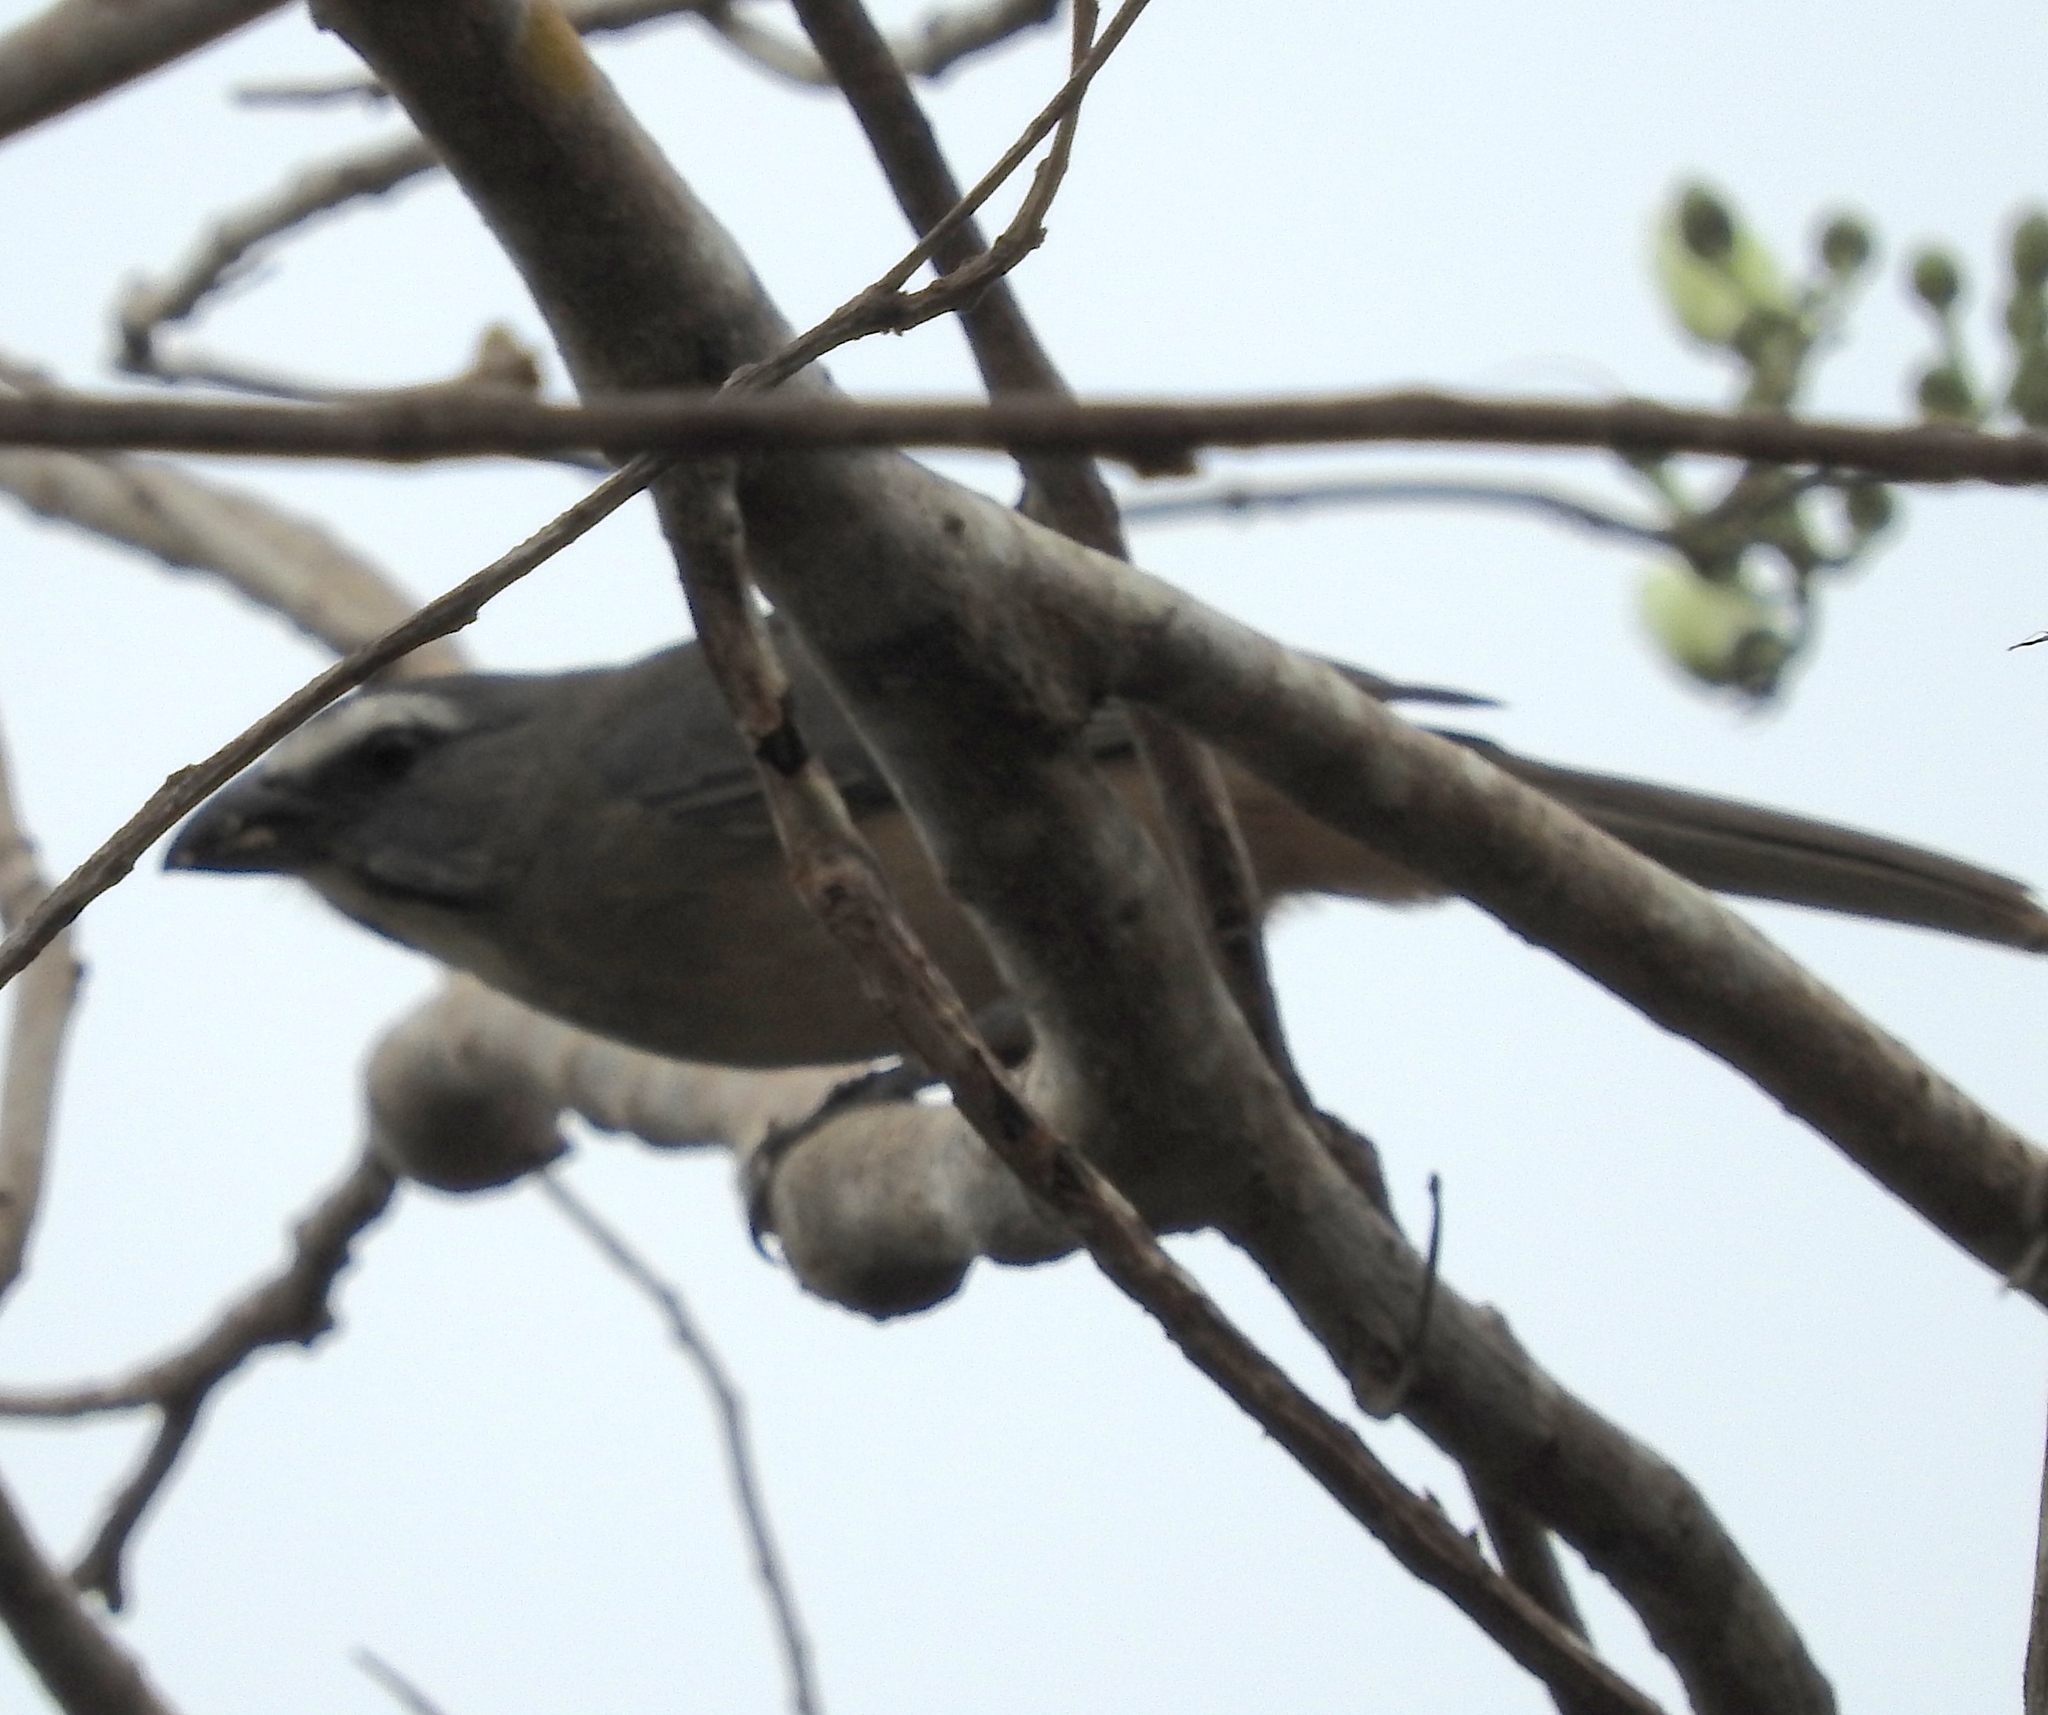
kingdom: Animalia
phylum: Chordata
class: Aves
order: Passeriformes
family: Thraupidae
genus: Saltator
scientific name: Saltator grandis
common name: Cinnamon-bellied saltator
